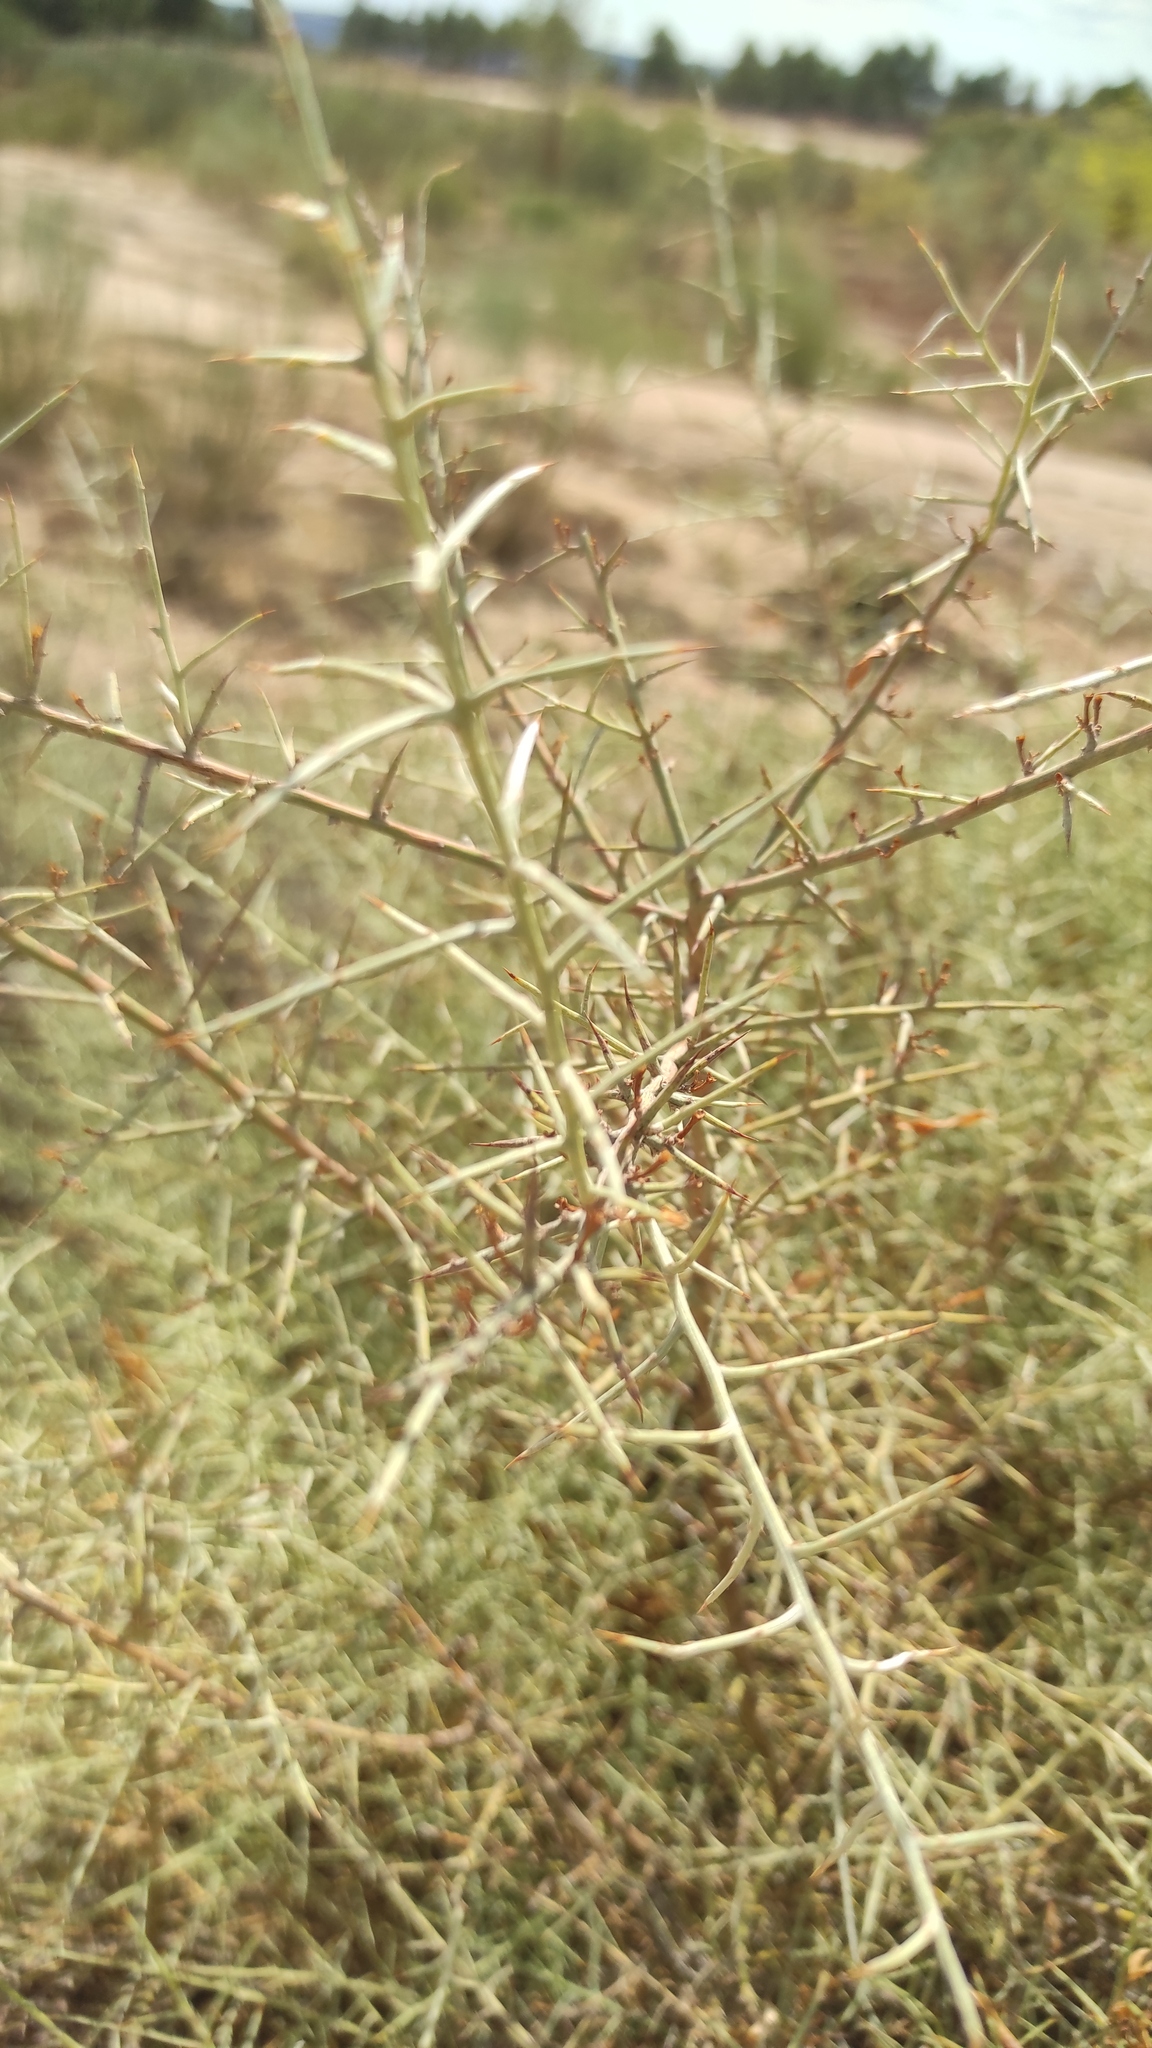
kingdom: Plantae
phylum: Tracheophyta
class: Magnoliopsida
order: Fabales
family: Fabaceae
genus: Genista
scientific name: Genista scorpius
